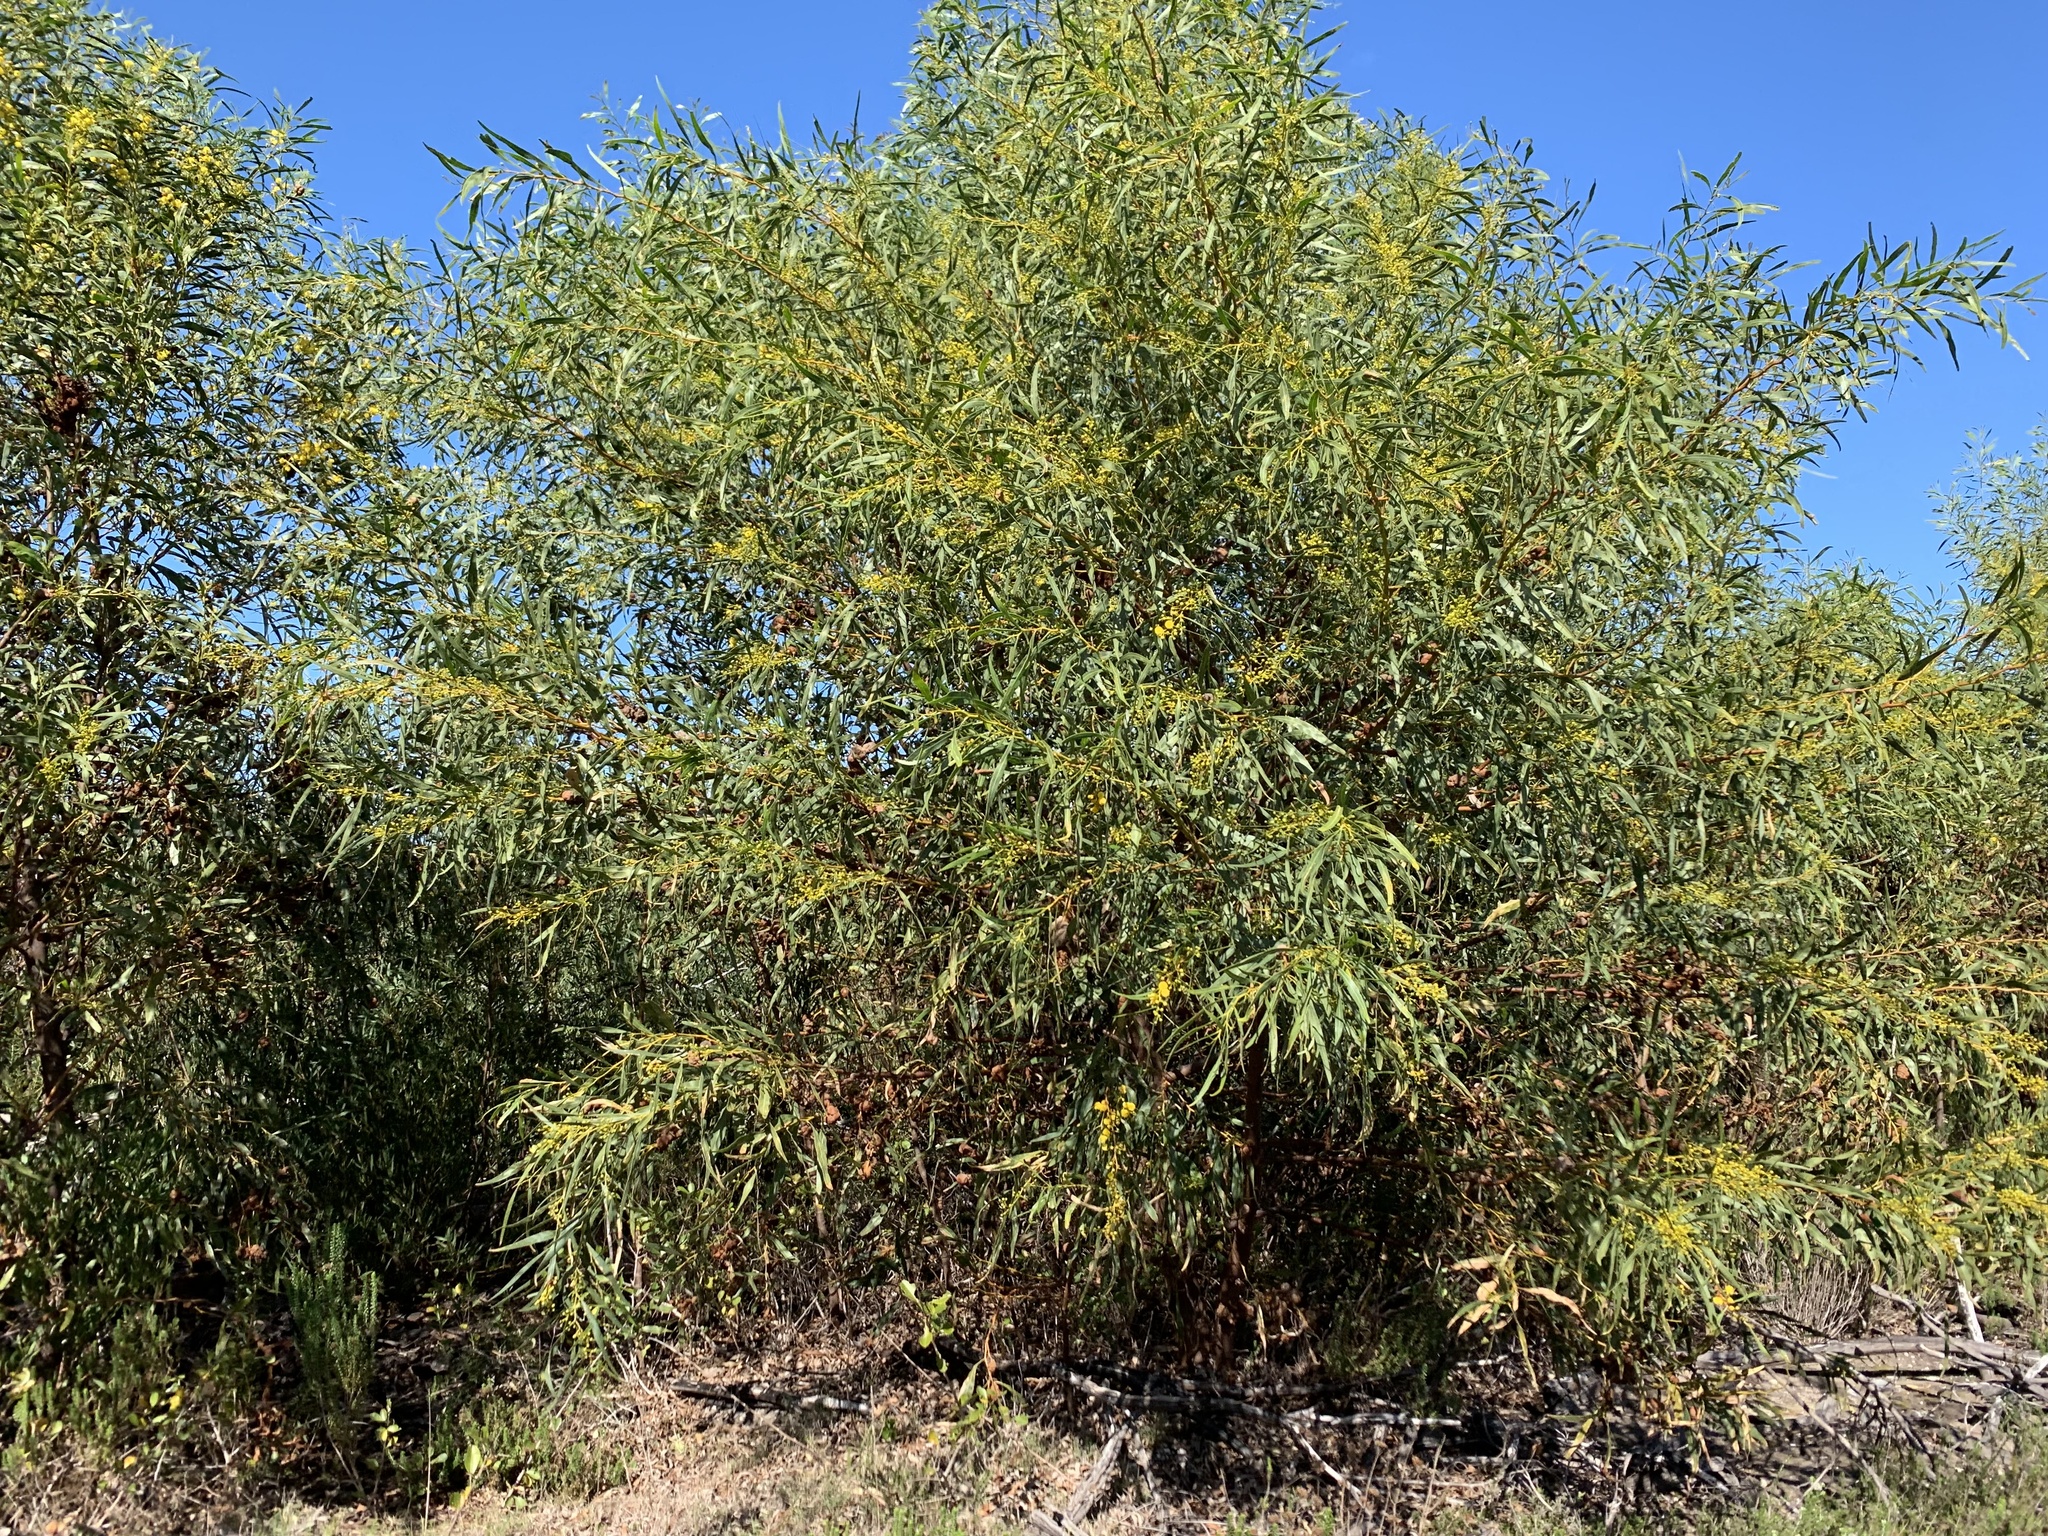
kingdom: Plantae
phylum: Tracheophyta
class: Magnoliopsida
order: Fabales
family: Fabaceae
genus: Acacia
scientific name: Acacia saligna
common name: Orange wattle
